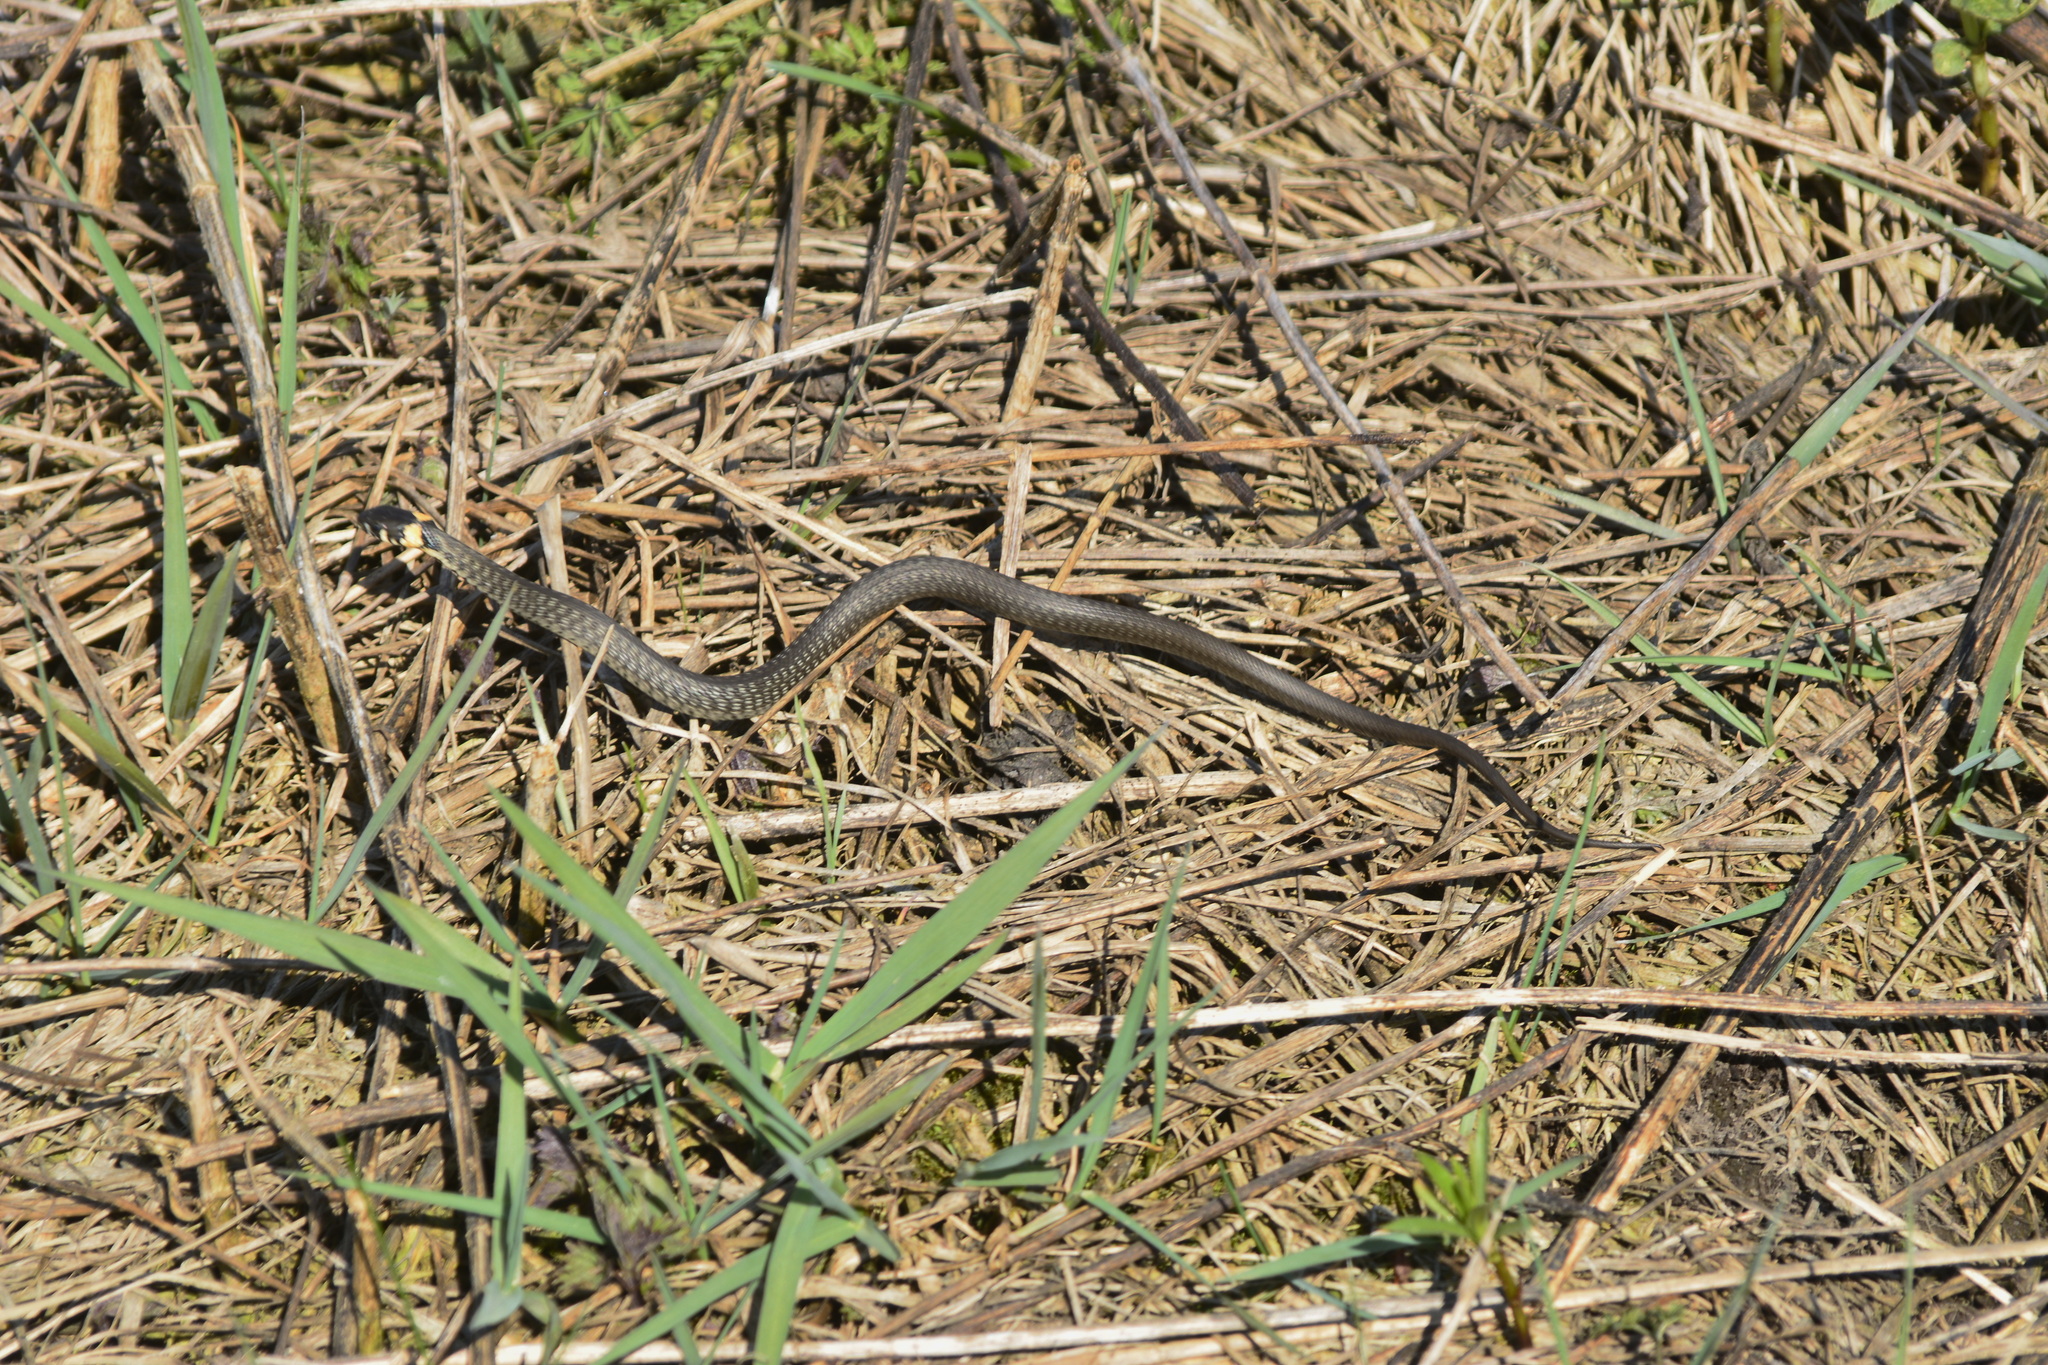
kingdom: Animalia
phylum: Chordata
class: Squamata
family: Colubridae
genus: Natrix
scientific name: Natrix natrix
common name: Grass snake
